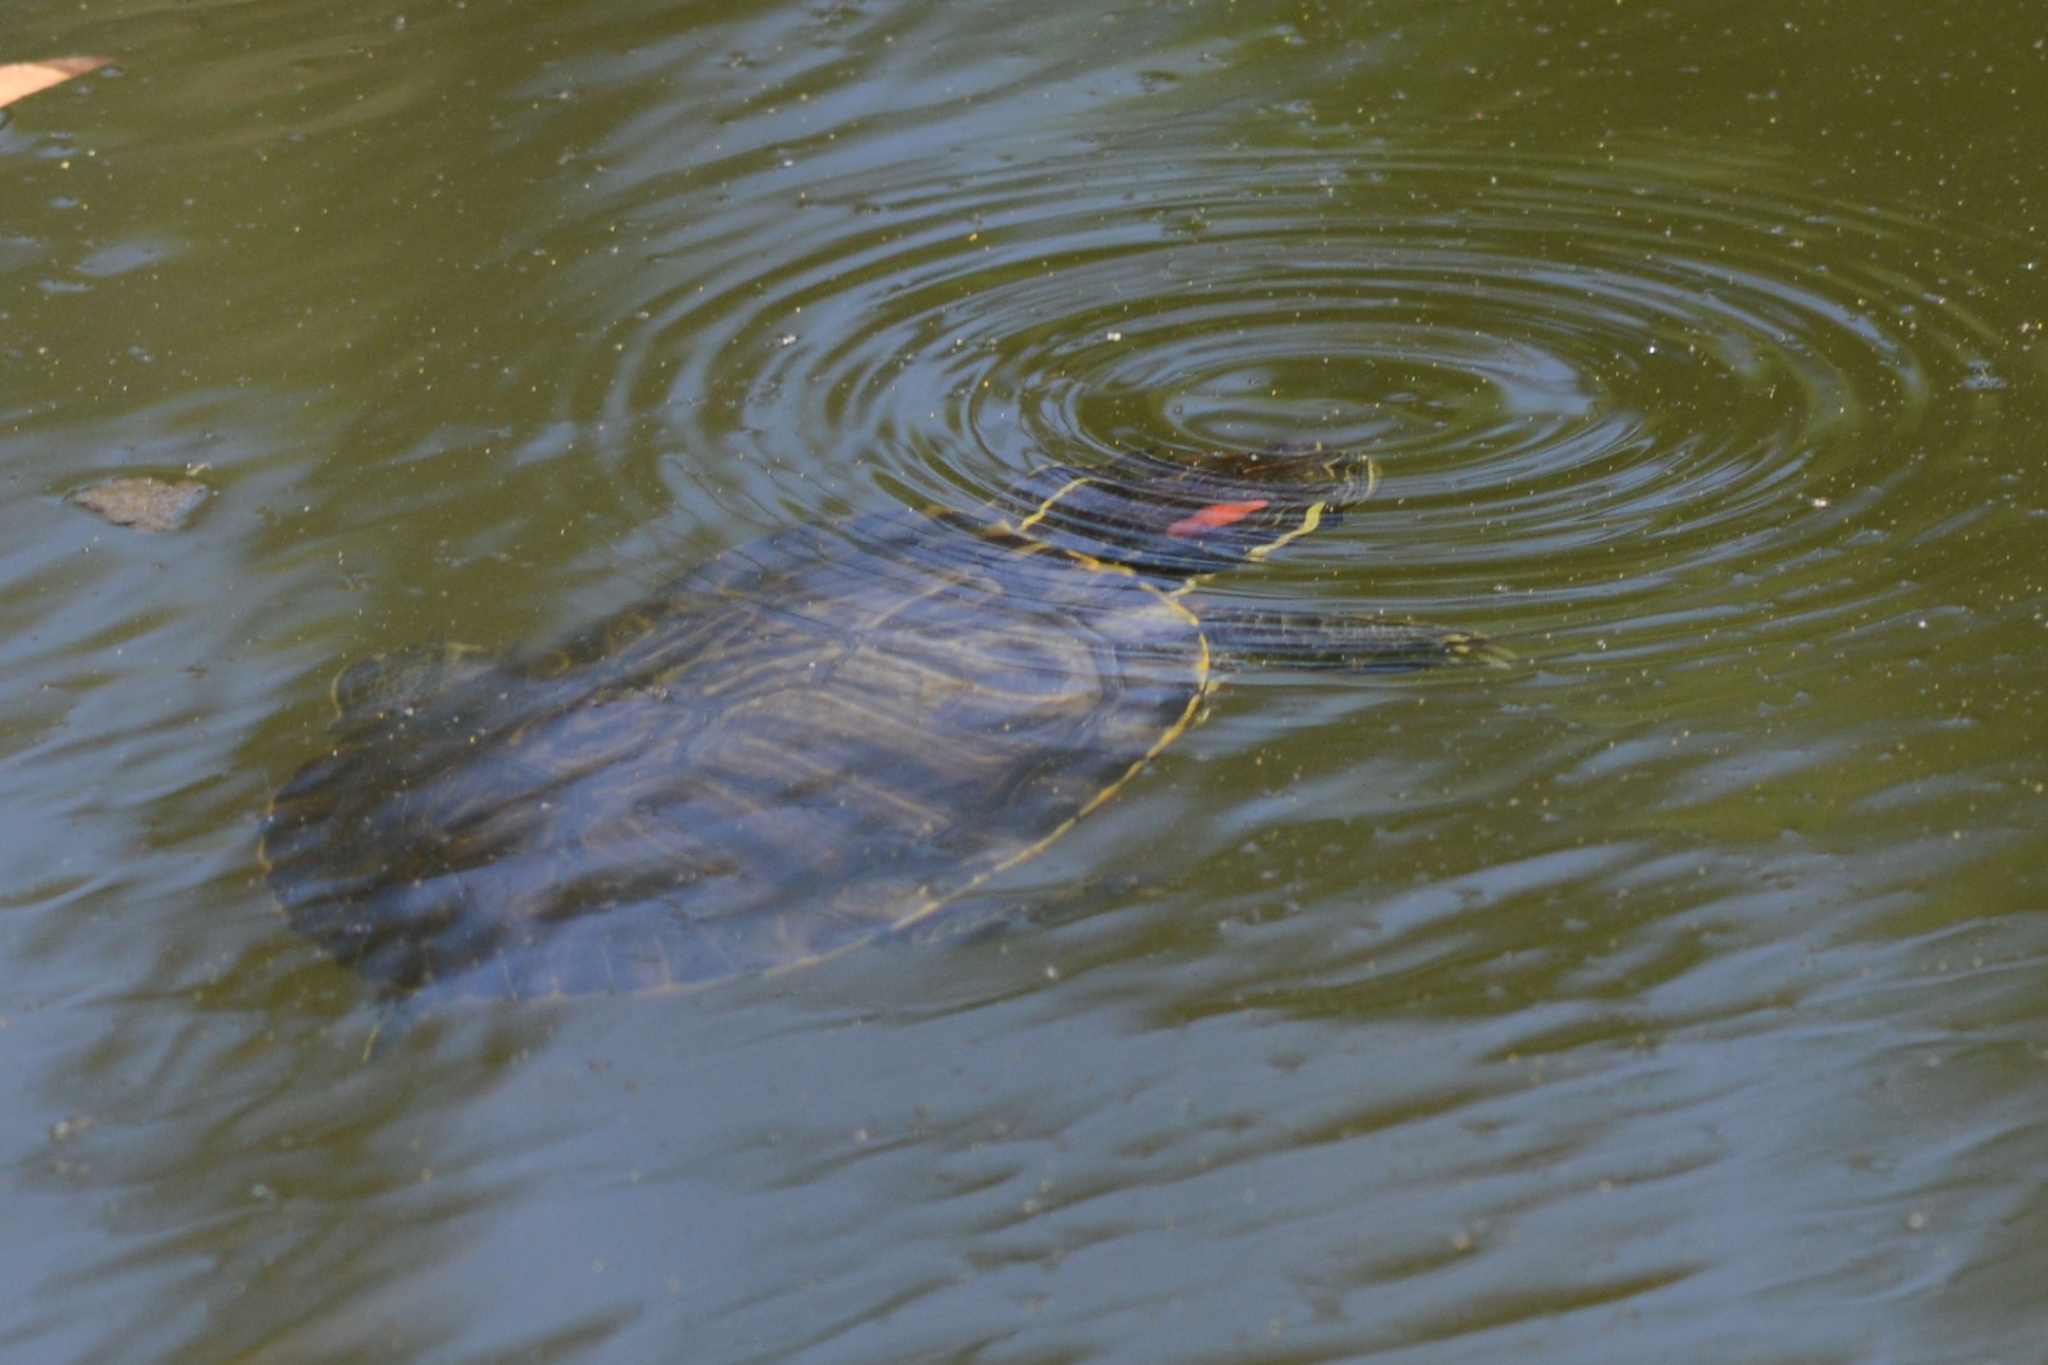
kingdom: Animalia
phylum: Chordata
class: Testudines
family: Emydidae
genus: Trachemys
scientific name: Trachemys scripta
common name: Slider
